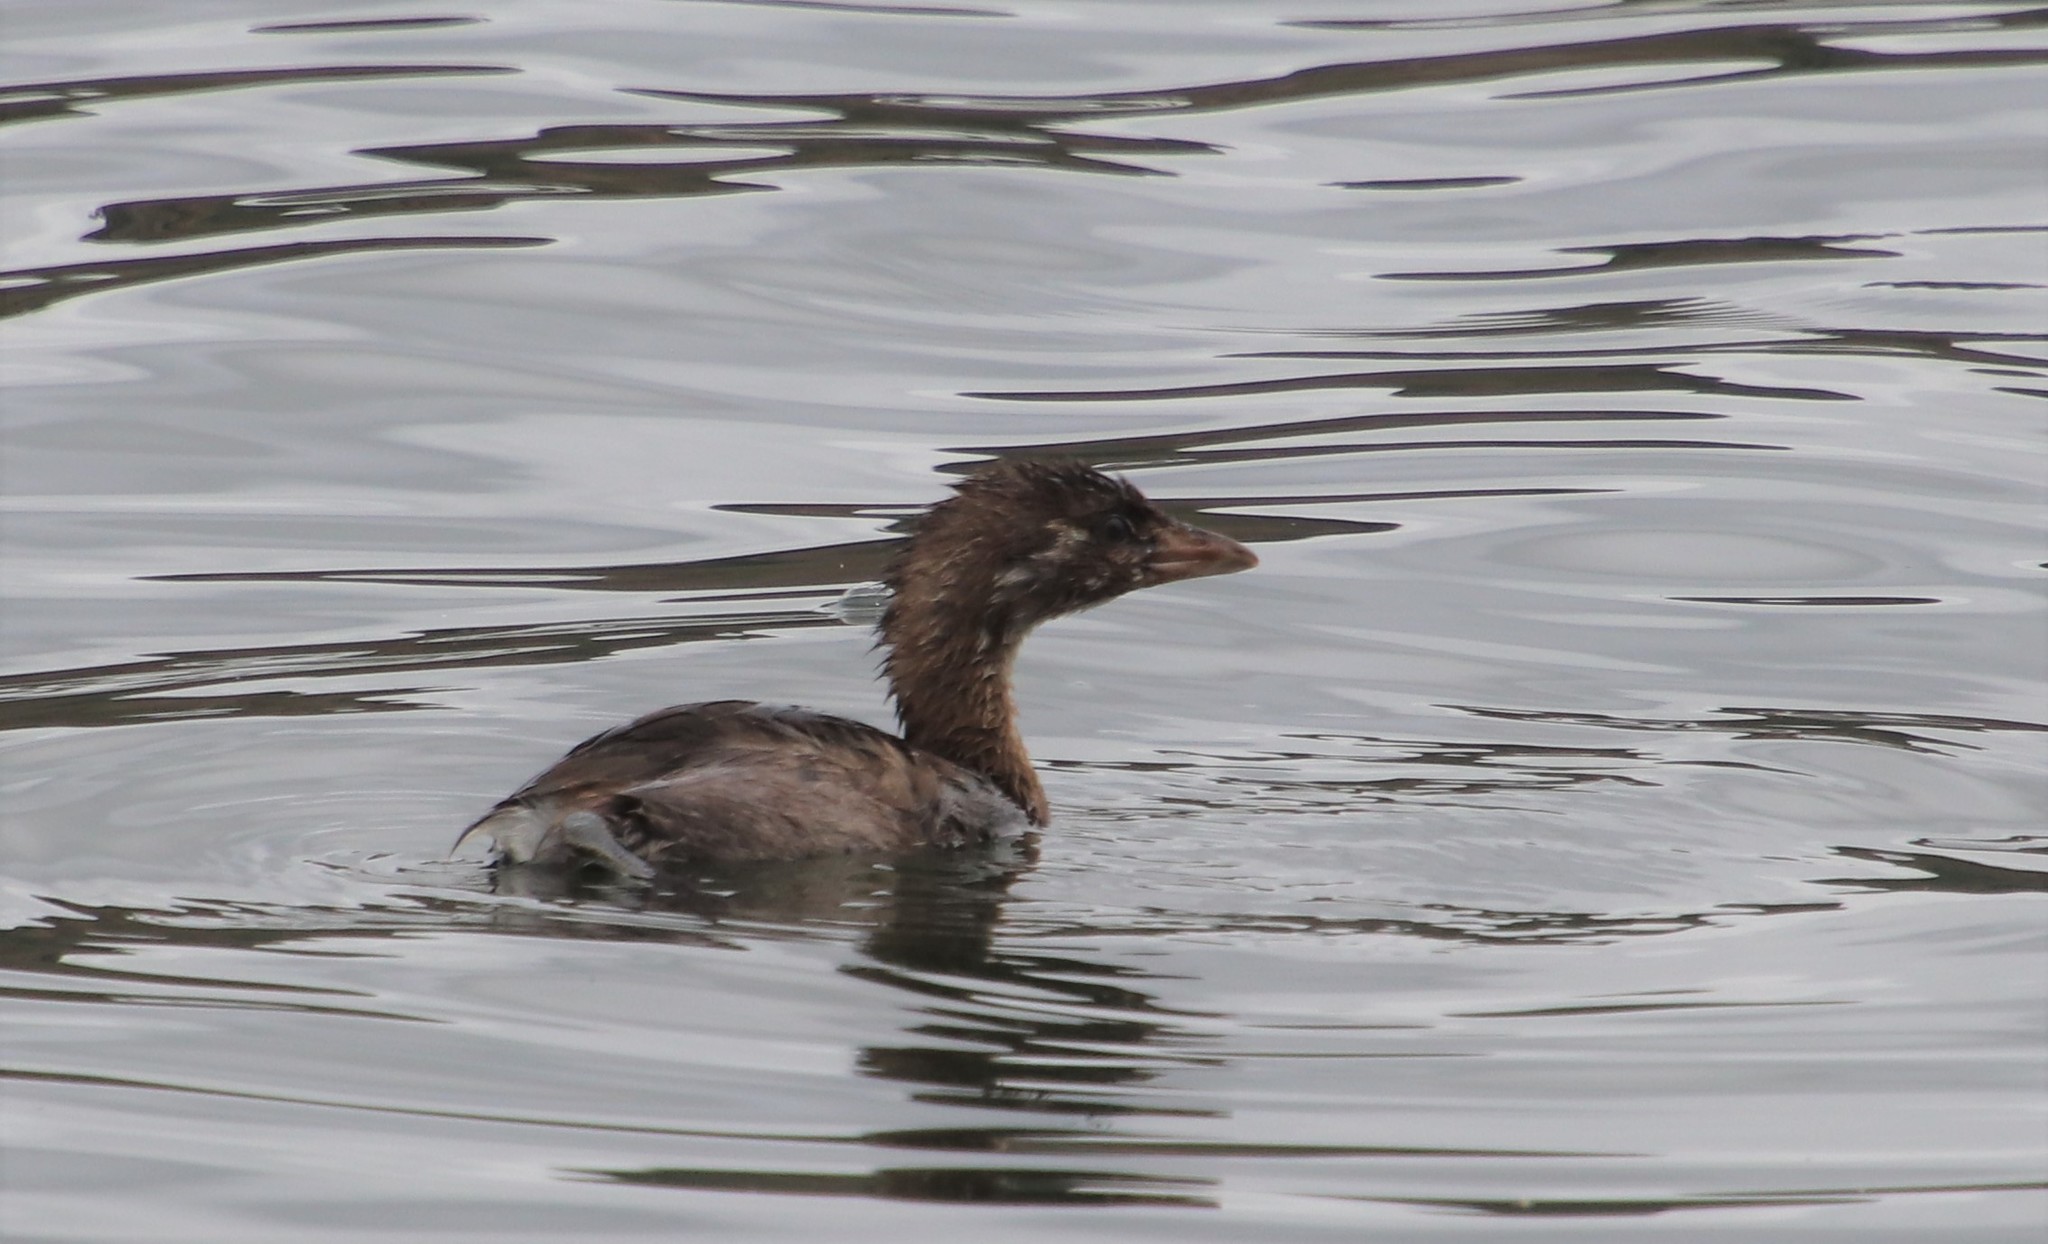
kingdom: Animalia
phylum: Chordata
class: Aves
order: Podicipediformes
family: Podicipedidae
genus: Podilymbus
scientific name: Podilymbus podiceps
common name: Pied-billed grebe
